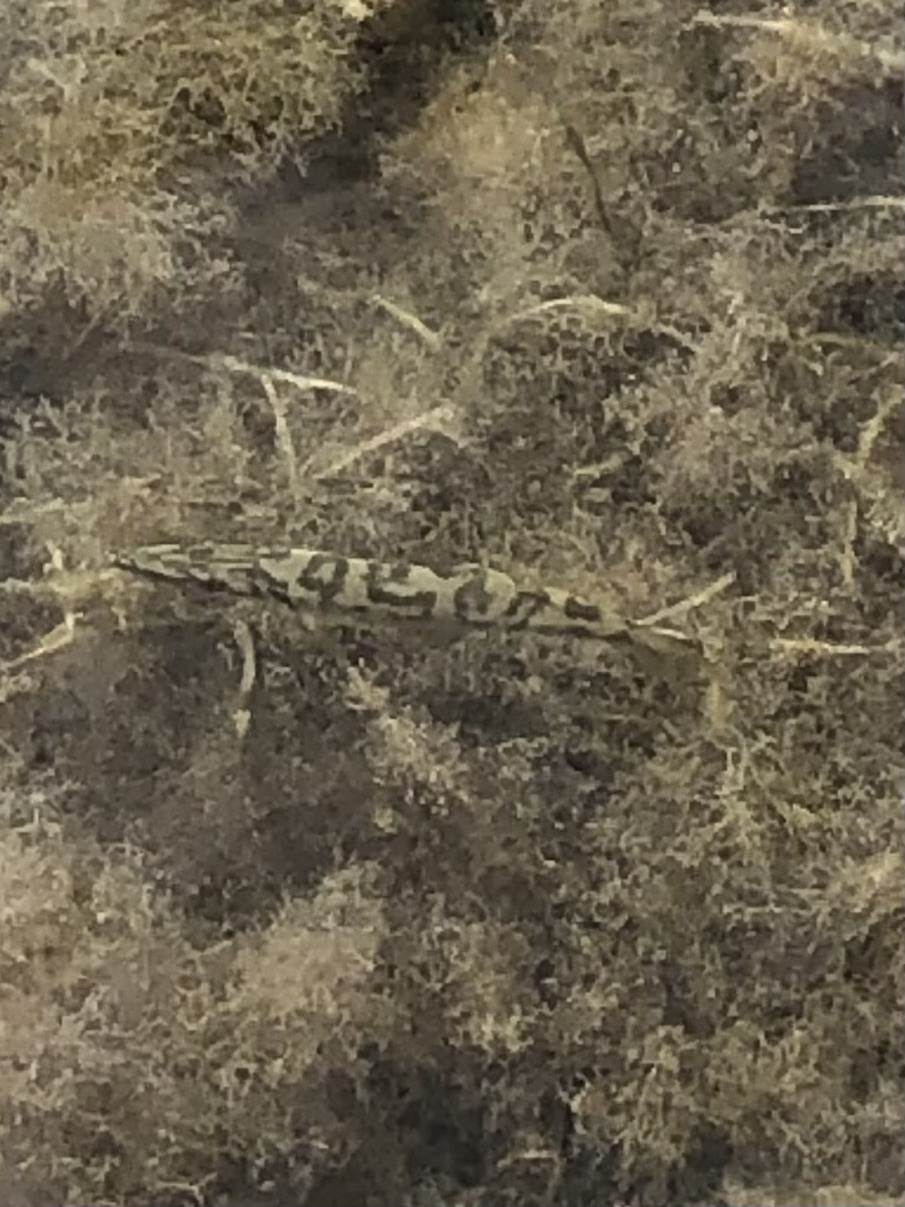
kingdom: Animalia
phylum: Chordata
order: Perciformes
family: Sphyraenidae
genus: Sphyraena
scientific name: Sphyraena barracuda
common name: Great barracuda
